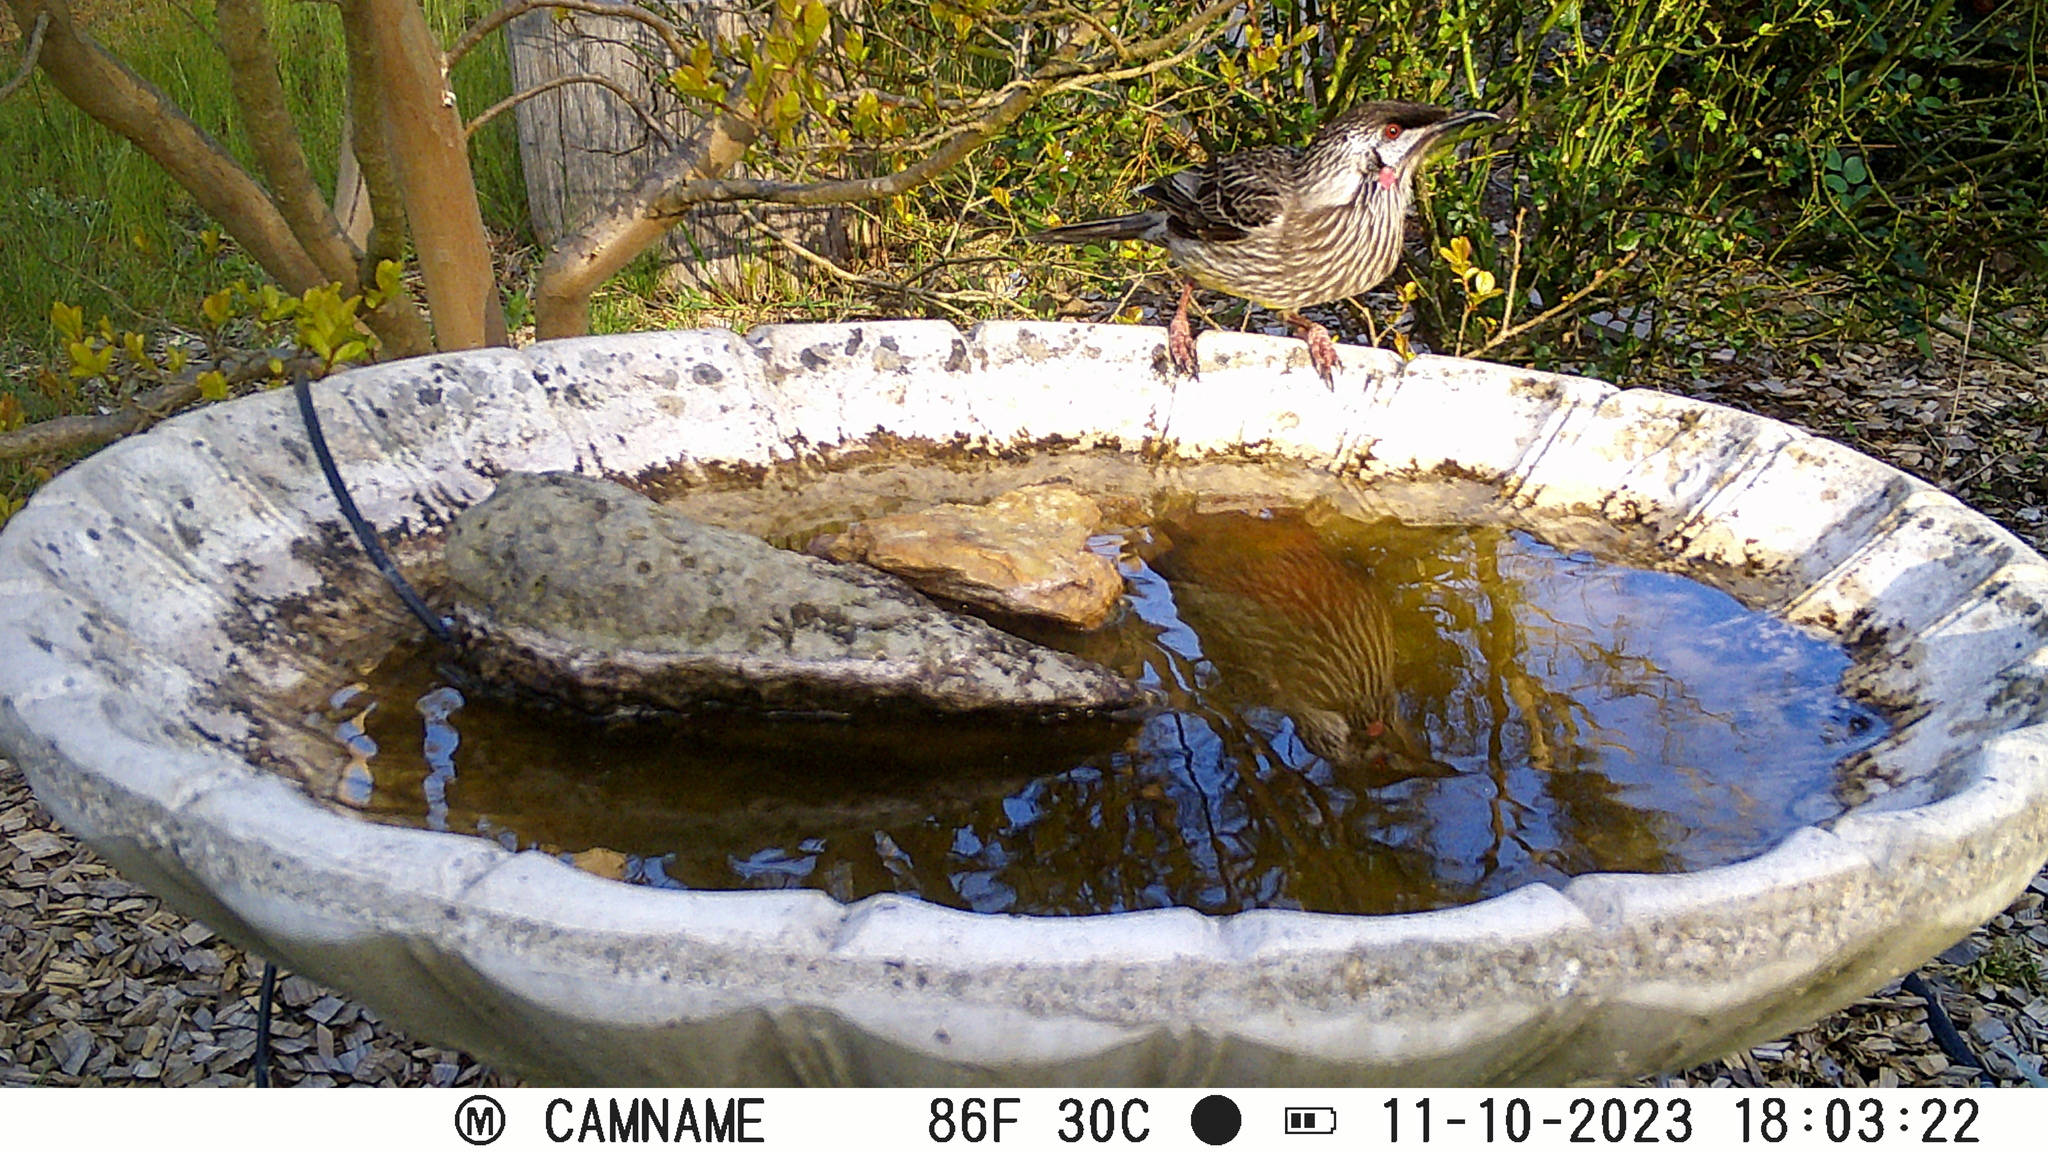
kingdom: Animalia
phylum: Chordata
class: Aves
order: Passeriformes
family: Meliphagidae
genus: Anthochaera
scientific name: Anthochaera carunculata
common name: Red wattlebird
